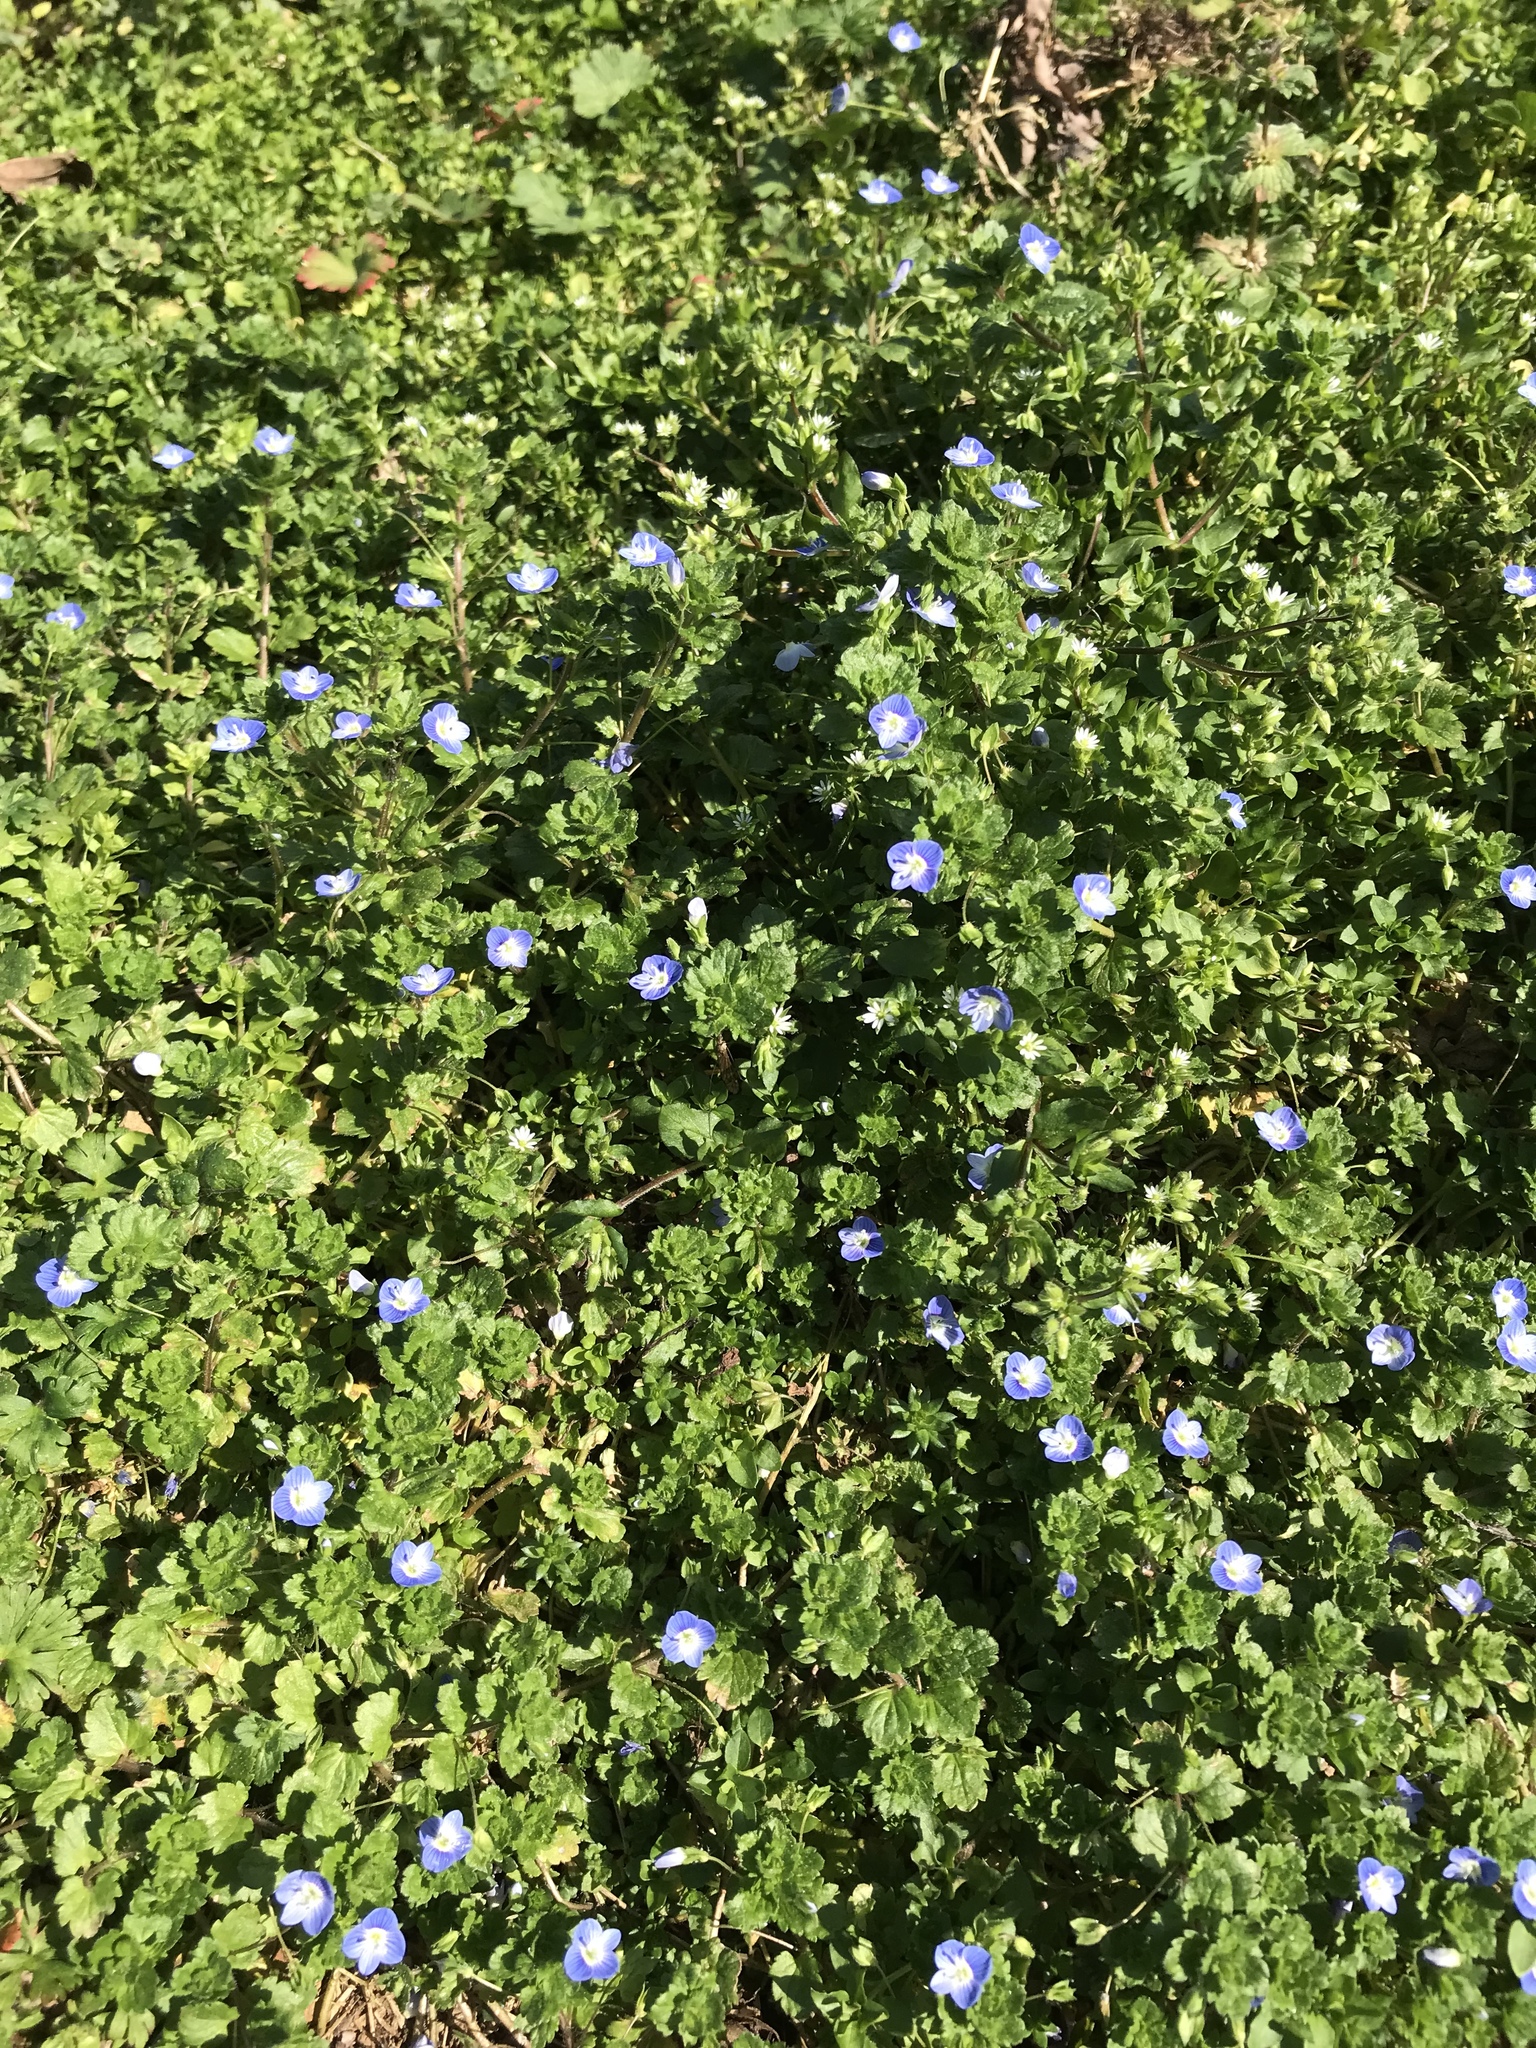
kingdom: Plantae
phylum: Tracheophyta
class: Magnoliopsida
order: Lamiales
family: Plantaginaceae
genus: Veronica
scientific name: Veronica persica
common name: Common field-speedwell
